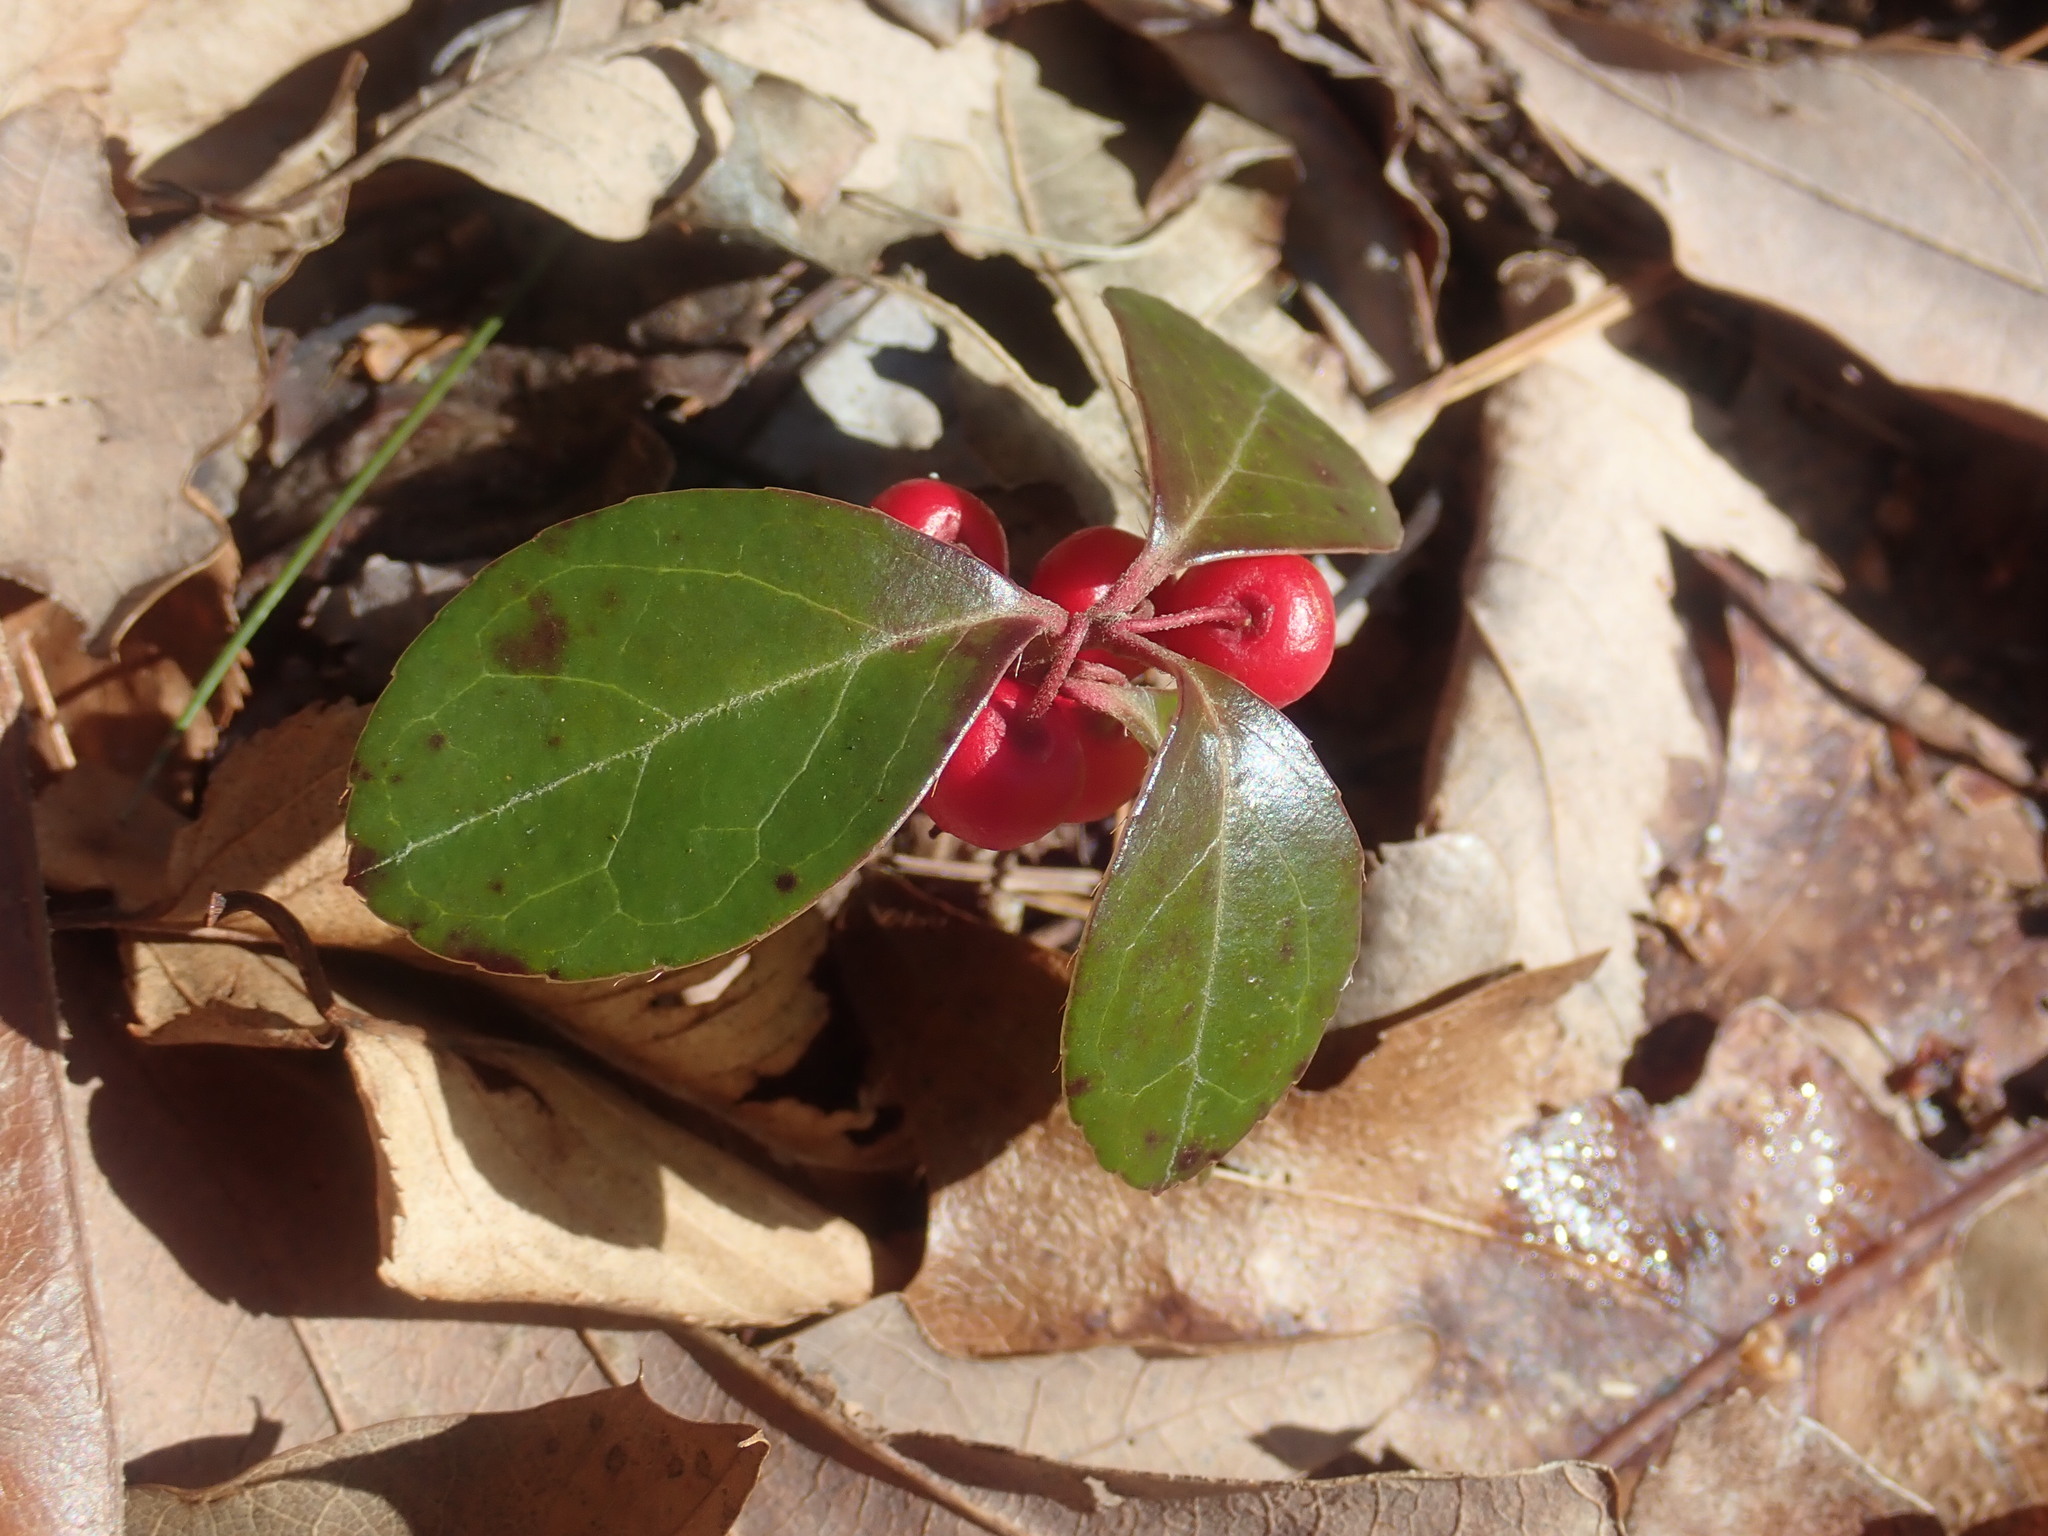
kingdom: Plantae
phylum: Tracheophyta
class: Magnoliopsida
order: Ericales
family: Ericaceae
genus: Gaultheria
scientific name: Gaultheria procumbens
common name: Checkerberry
